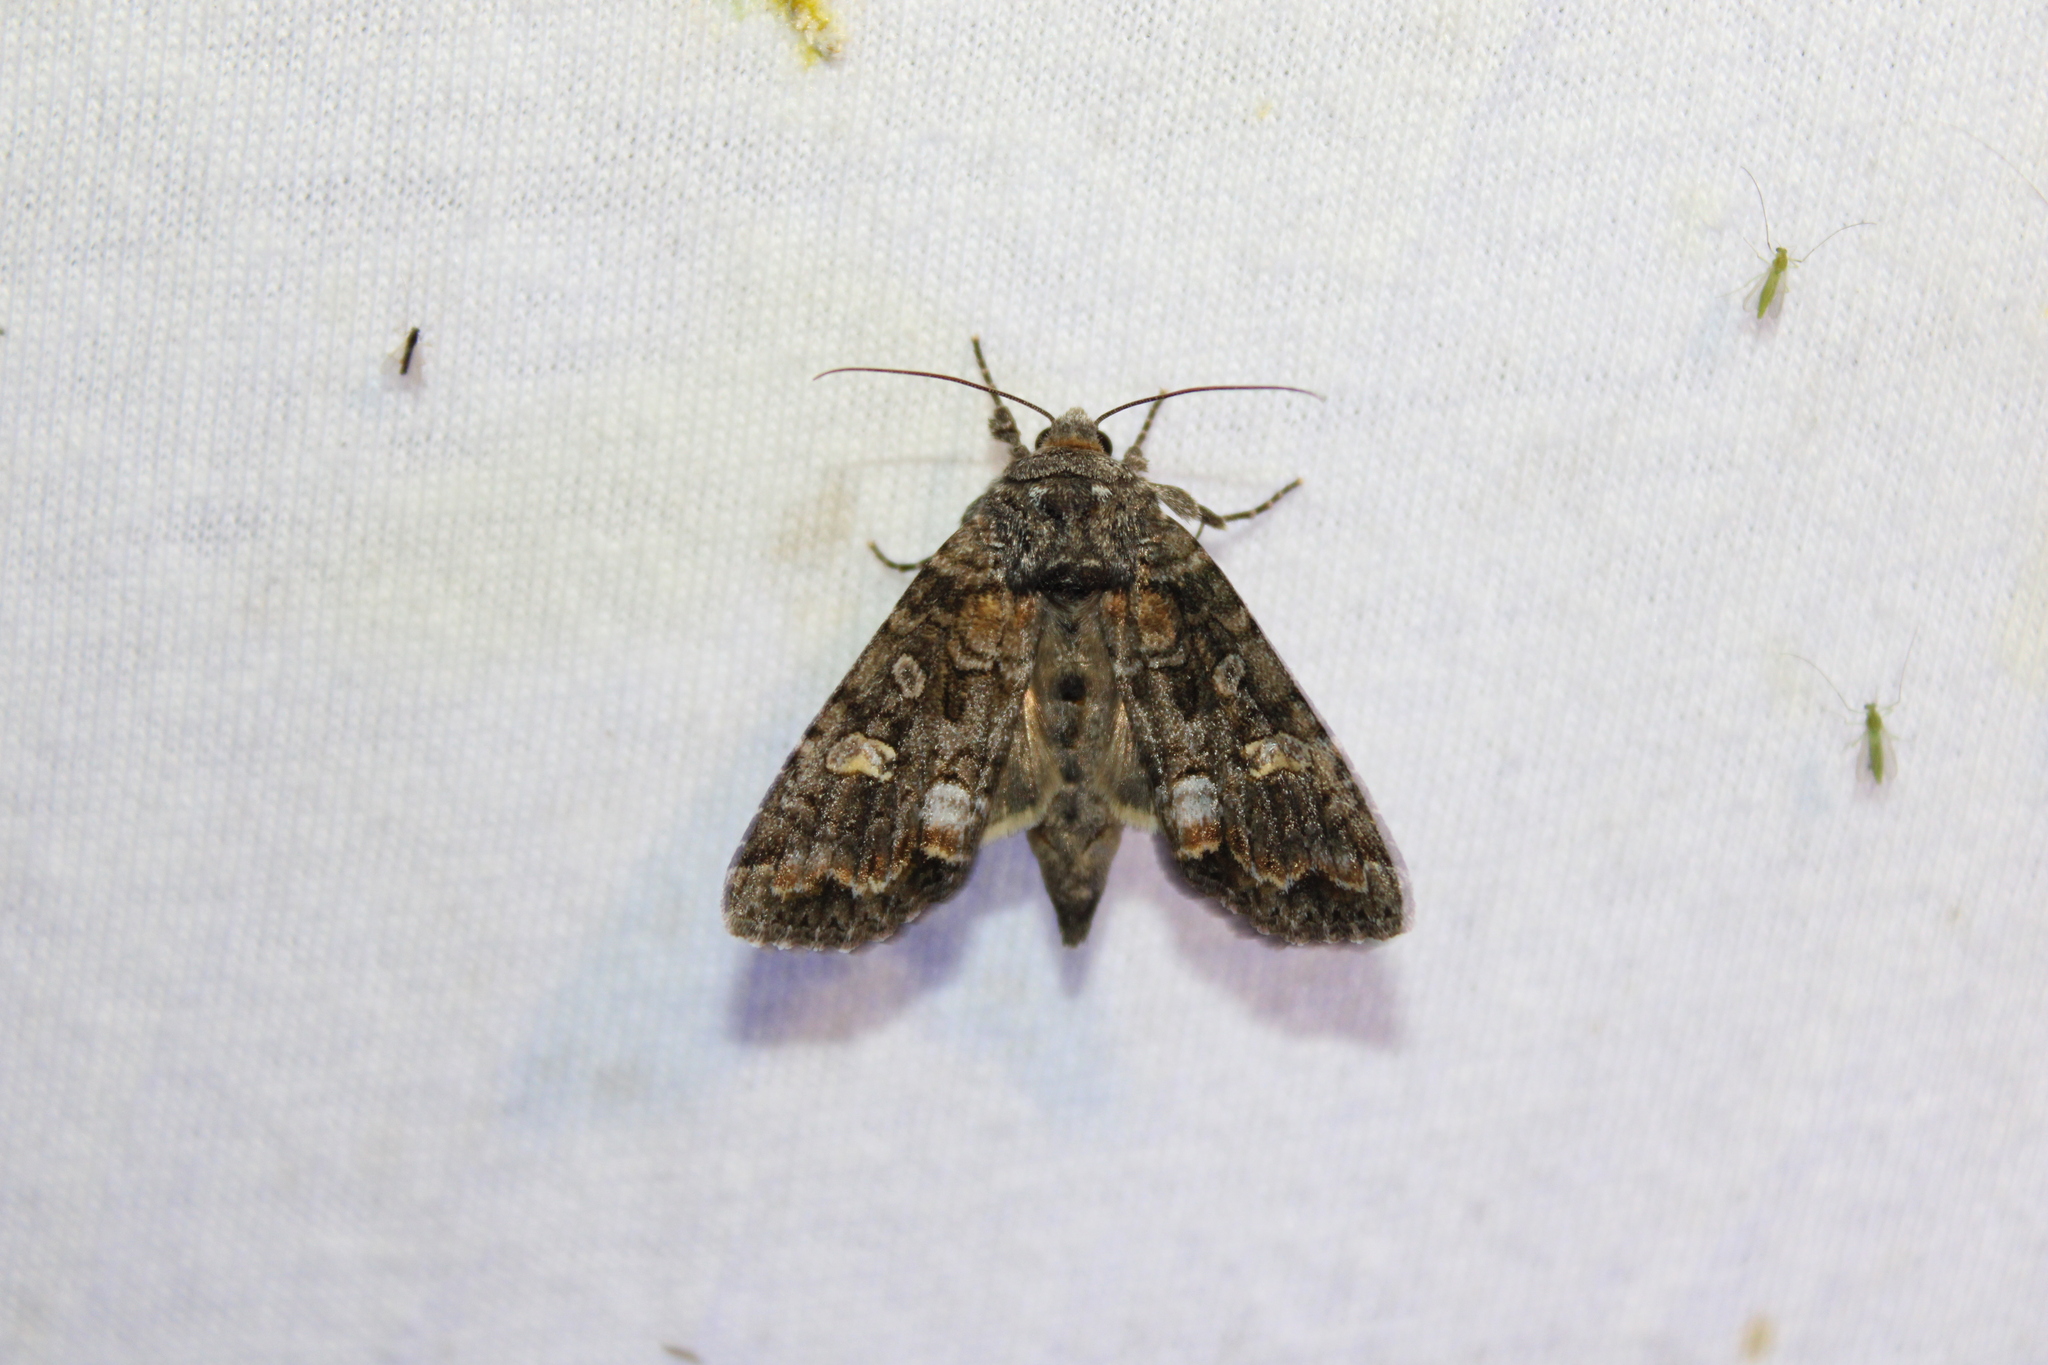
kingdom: Animalia
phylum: Arthropoda
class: Insecta
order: Lepidoptera
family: Noctuidae
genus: Spiramater
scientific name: Spiramater lutra
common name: Otter spiramater moth
